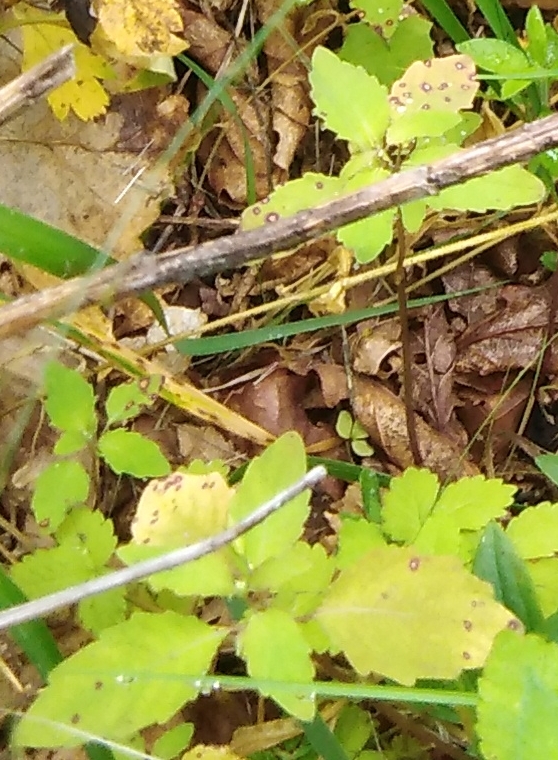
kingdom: Plantae
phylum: Tracheophyta
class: Magnoliopsida
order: Ericales
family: Balsaminaceae
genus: Impatiens
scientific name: Impatiens noli-tangere
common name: Touch-me-not balsam
